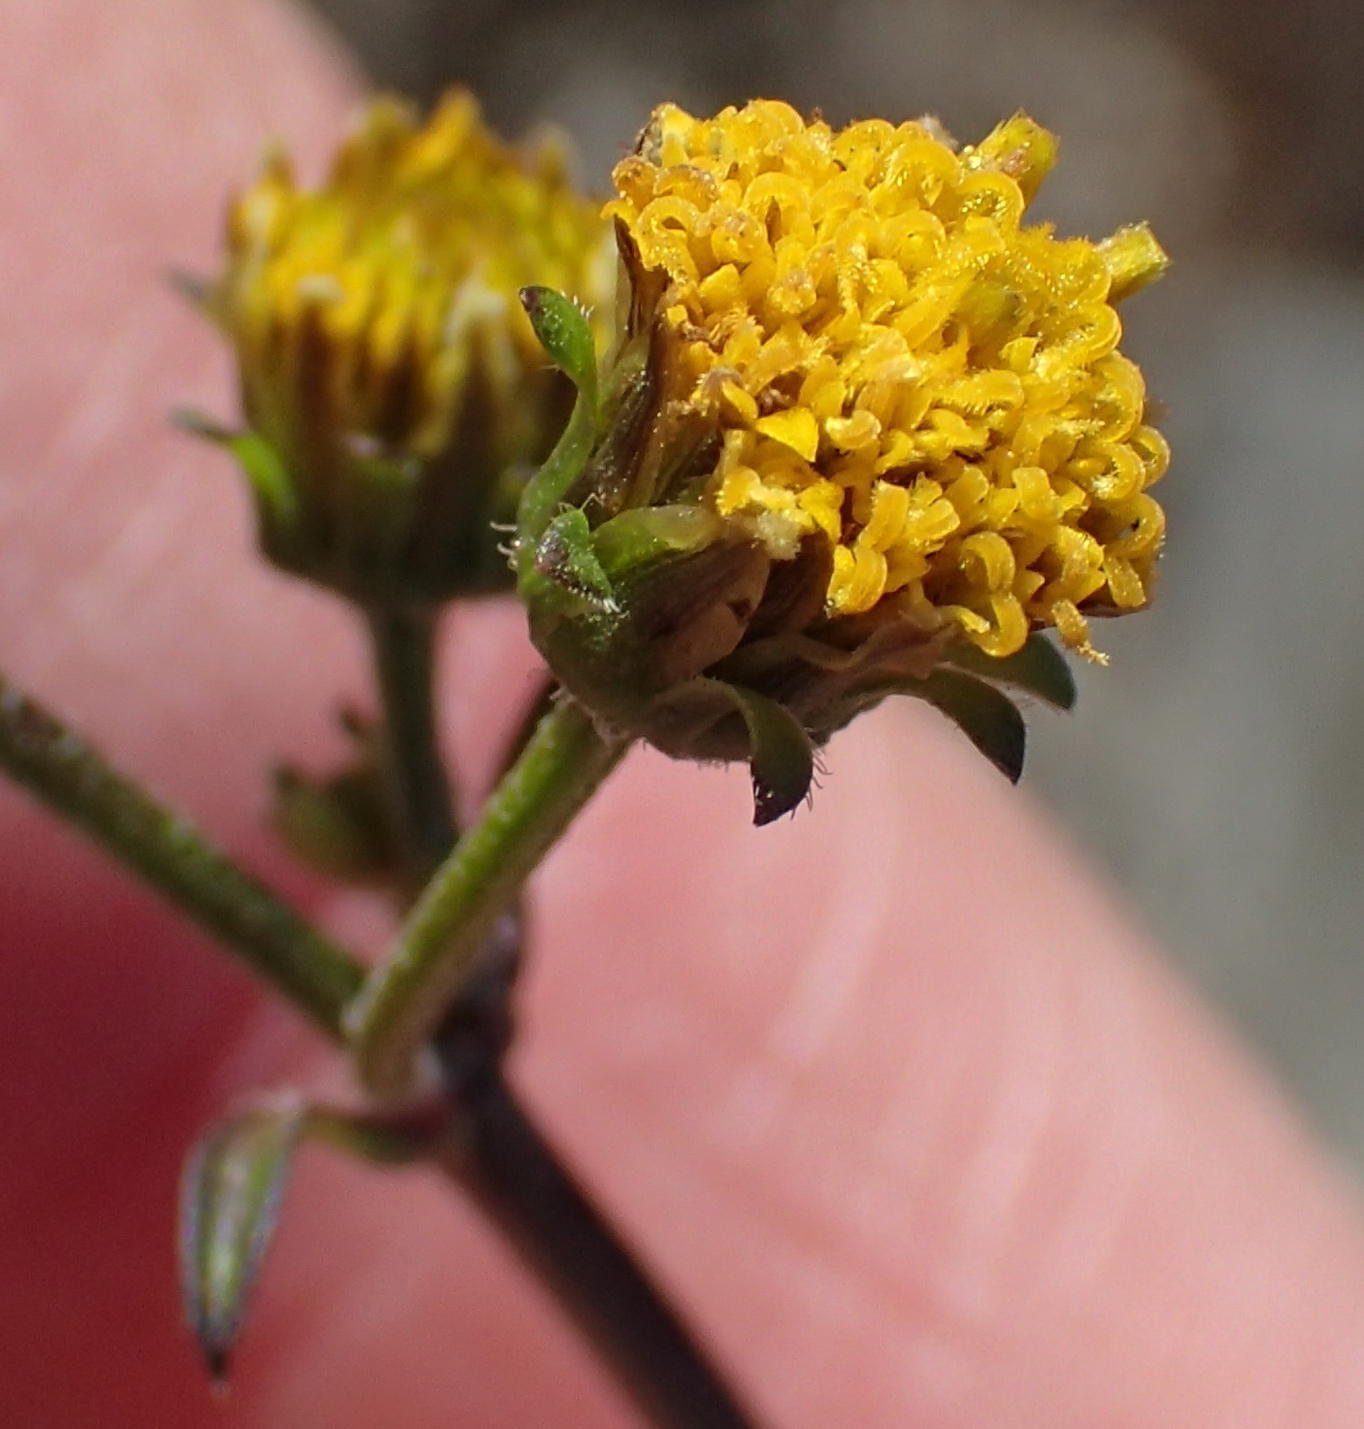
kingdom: Plantae
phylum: Tracheophyta
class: Magnoliopsida
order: Asterales
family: Asteraceae
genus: Bidens
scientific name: Bidens pilosa
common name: Black-jack
